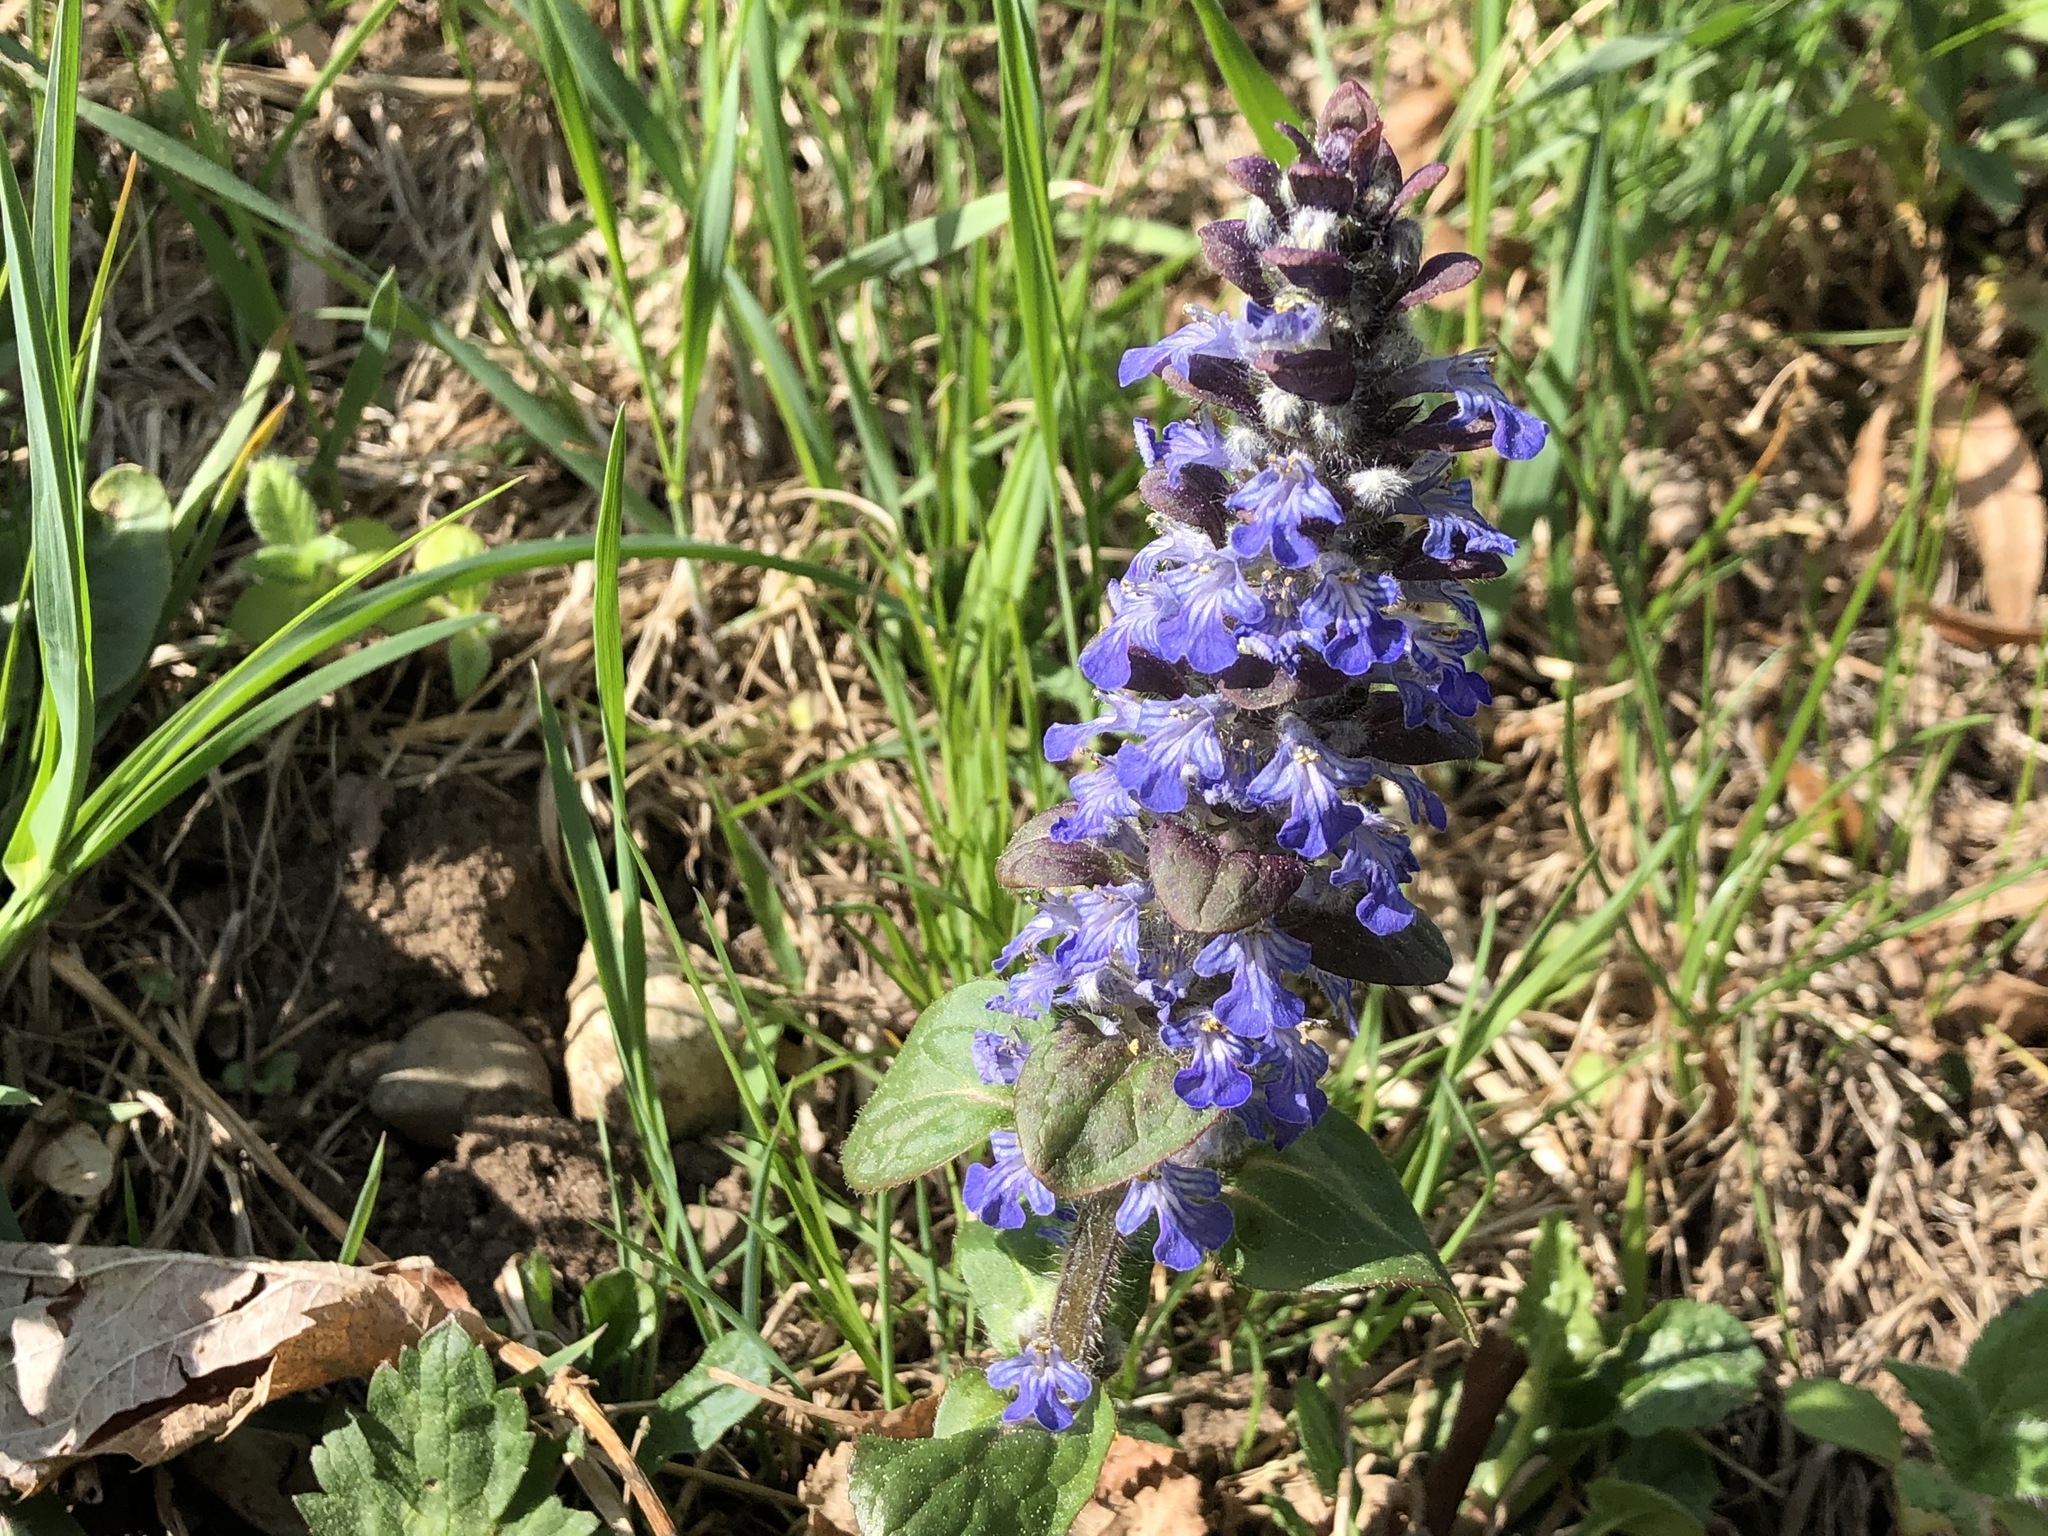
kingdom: Plantae
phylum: Tracheophyta
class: Magnoliopsida
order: Lamiales
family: Lamiaceae
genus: Ajuga
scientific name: Ajuga reptans
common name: Bugle
